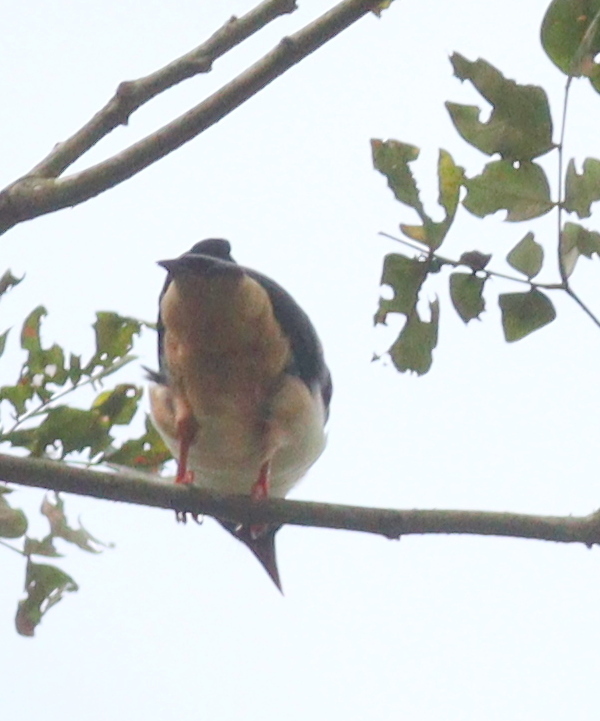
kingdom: Animalia
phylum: Chordata
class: Aves
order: Passeriformes
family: Prionopidae
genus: Prionops
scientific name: Prionops caniceps
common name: Red-billed helmetshrike
